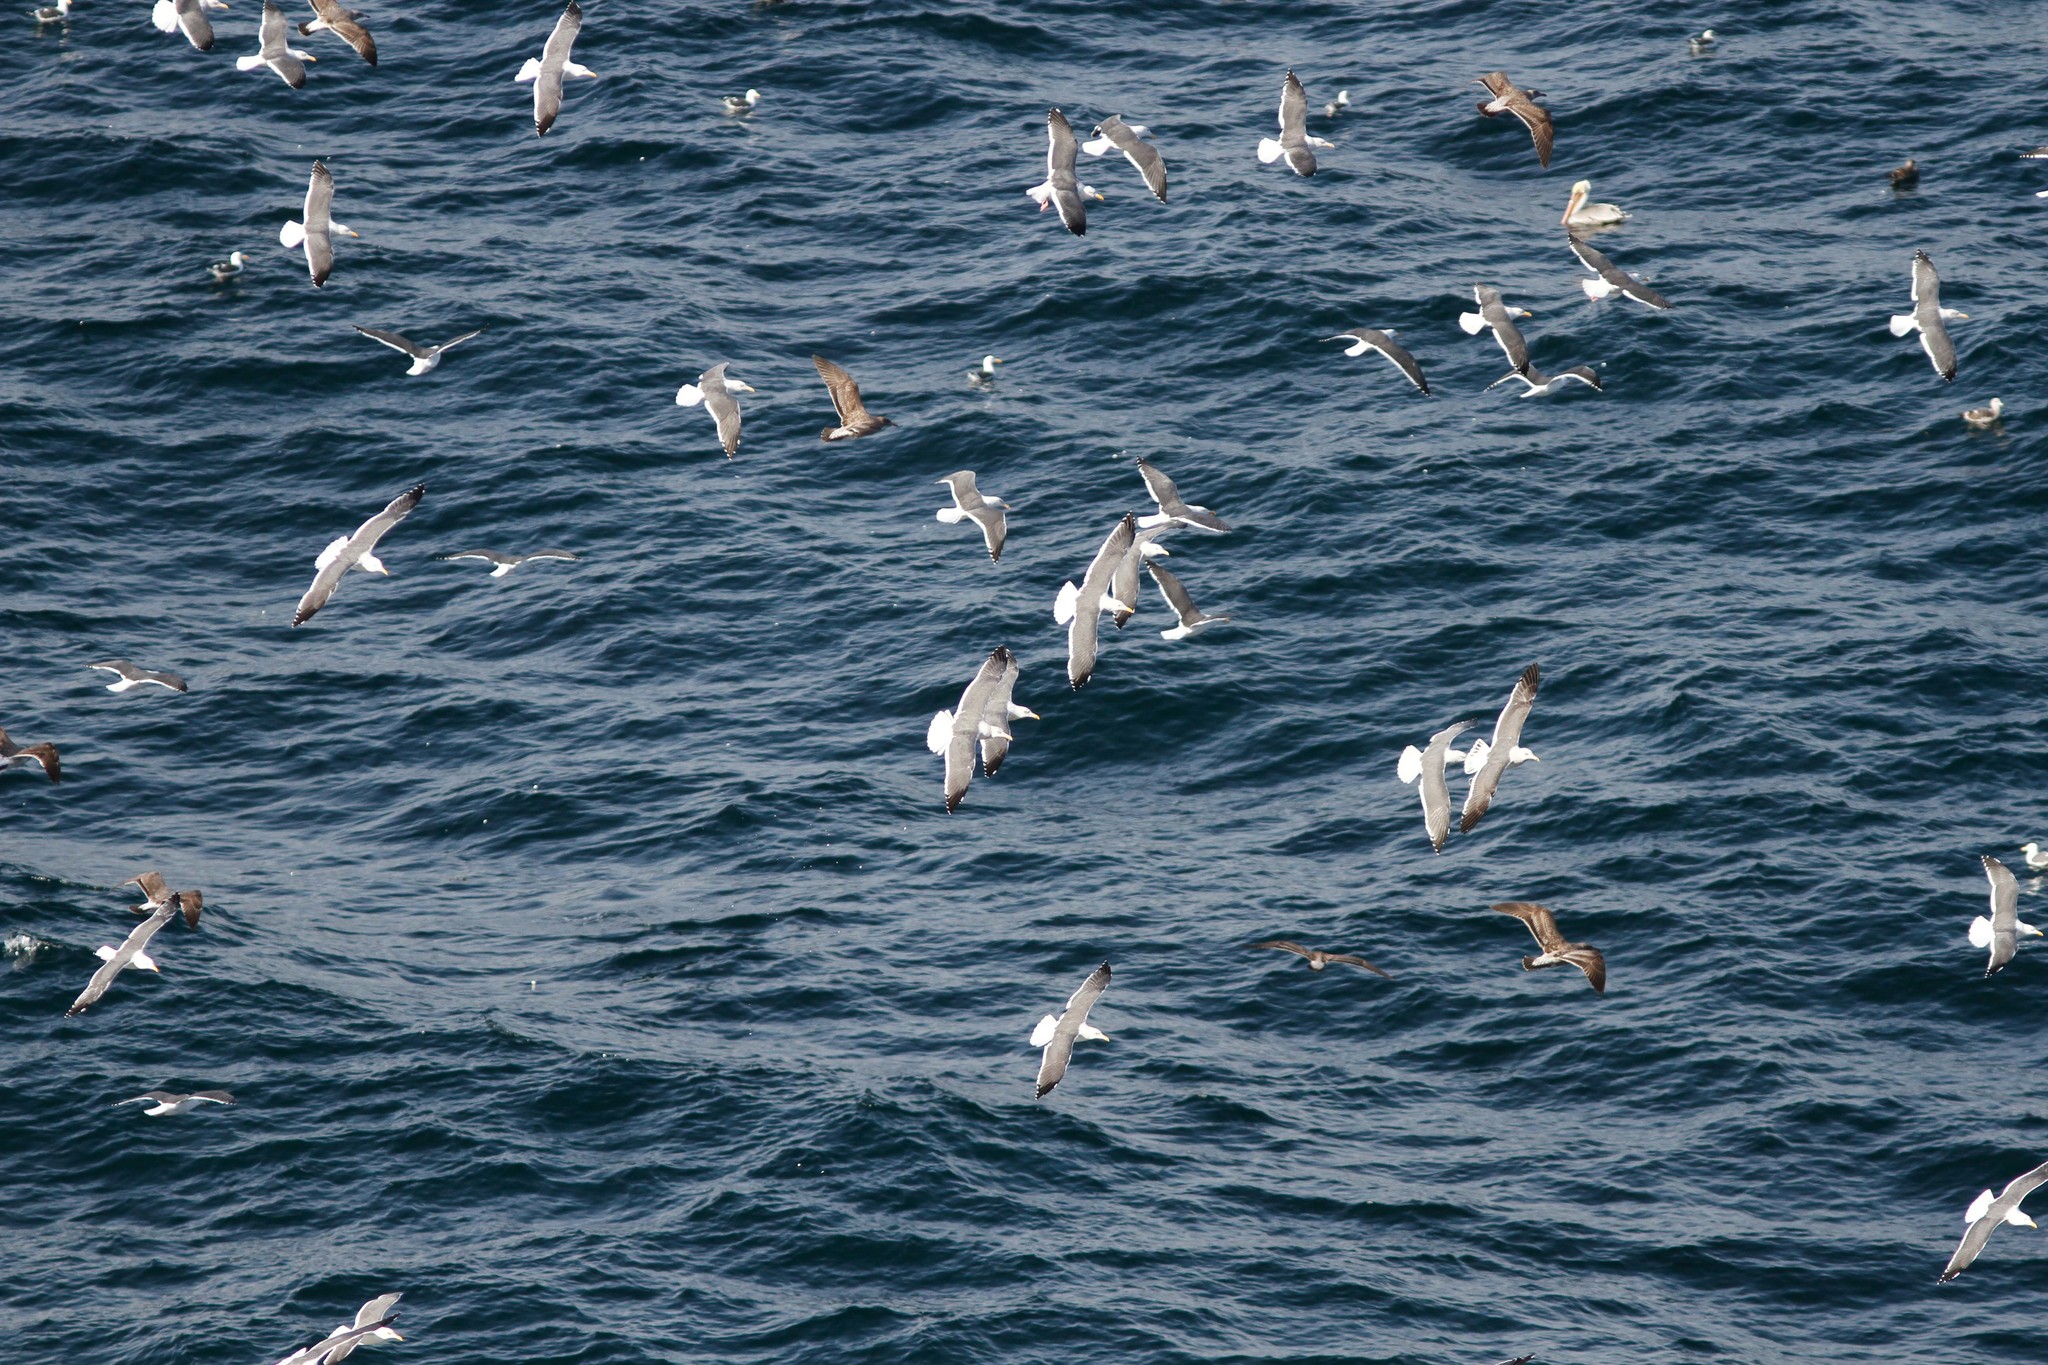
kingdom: Animalia
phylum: Chordata
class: Aves
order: Charadriiformes
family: Laridae
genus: Larus
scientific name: Larus occidentalis
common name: Western gull
